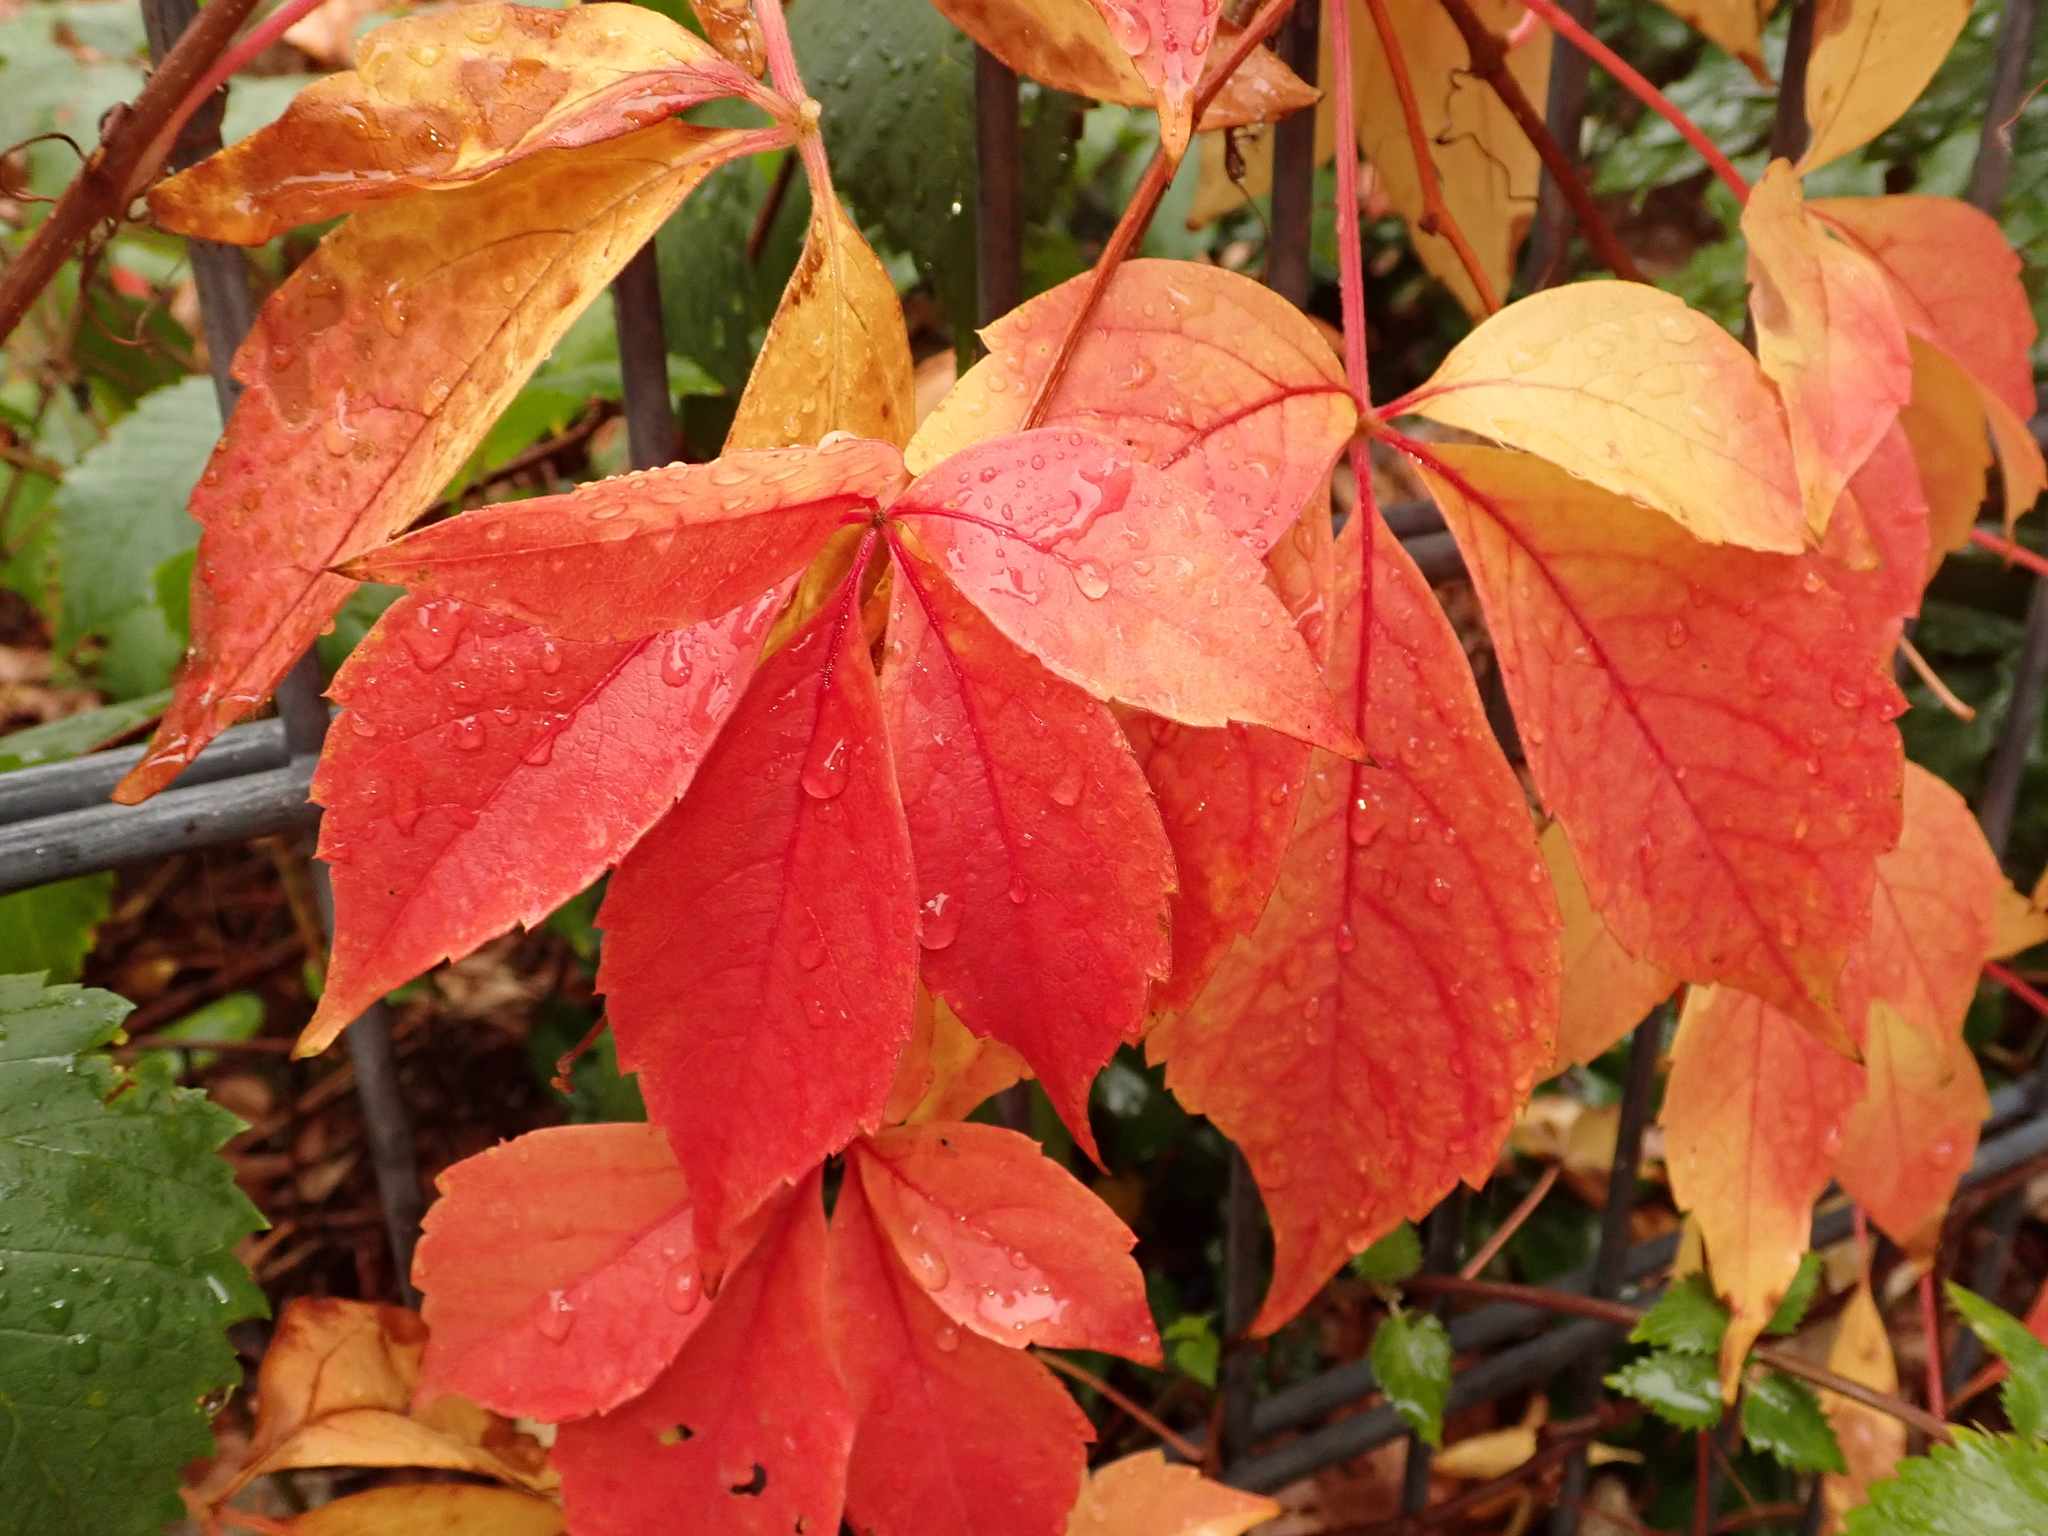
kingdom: Plantae
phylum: Tracheophyta
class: Magnoliopsida
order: Vitales
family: Vitaceae
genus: Parthenocissus
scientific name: Parthenocissus quinquefolia
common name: Virginia-creeper
